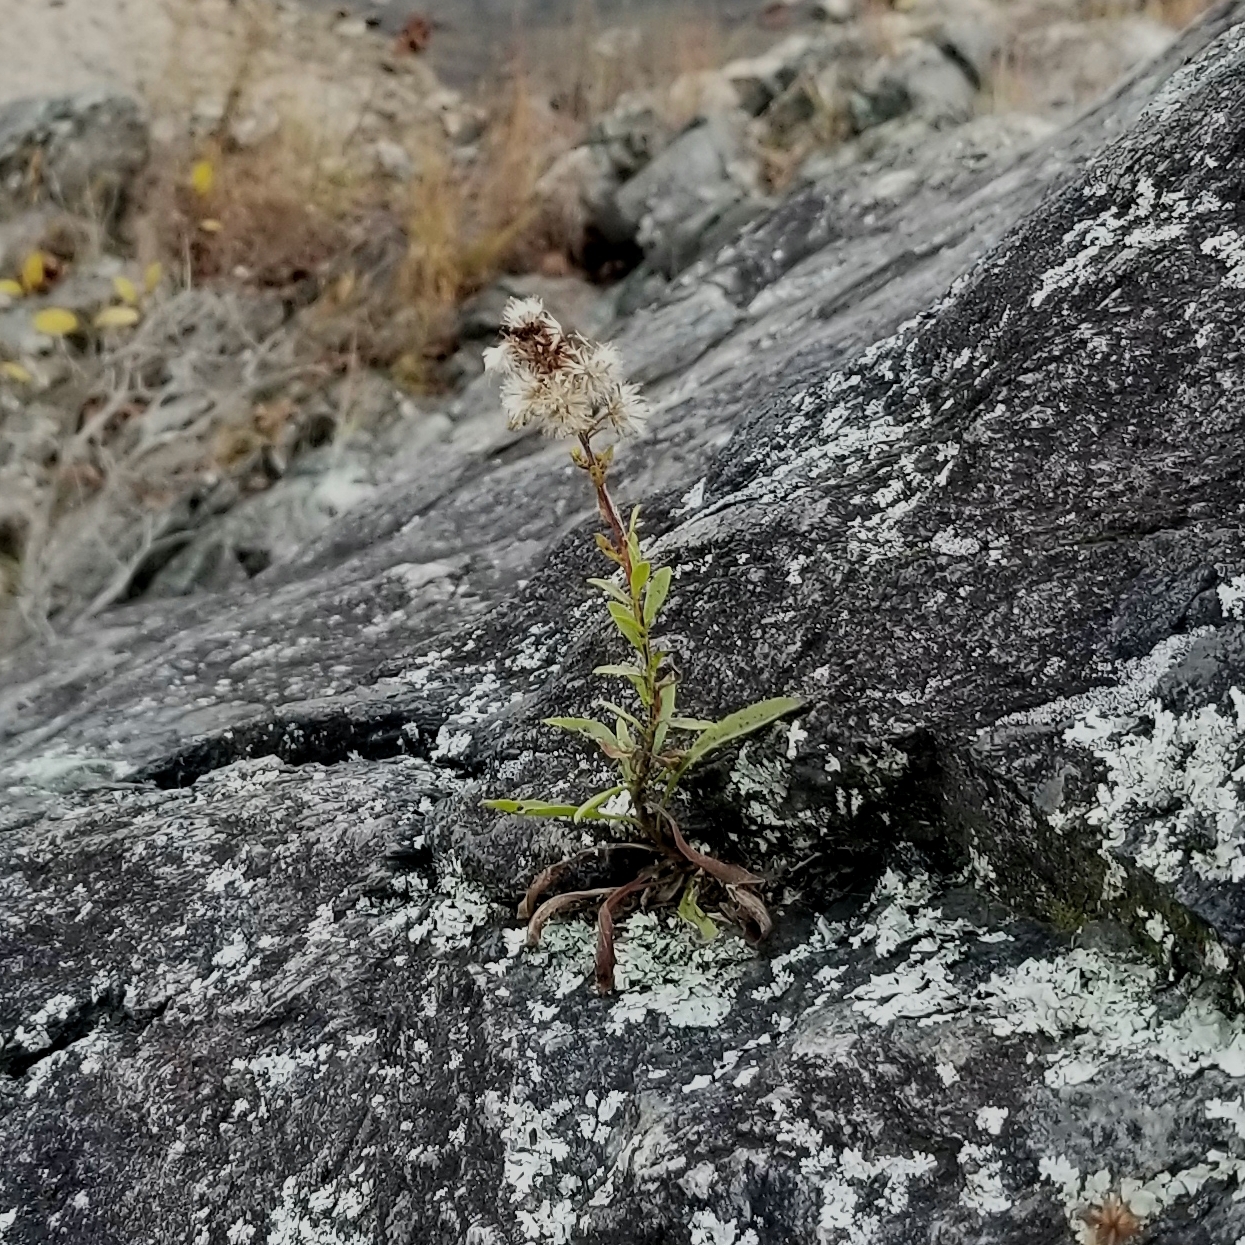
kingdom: Plantae
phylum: Tracheophyta
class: Magnoliopsida
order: Asterales
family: Asteraceae
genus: Solidago
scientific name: Solidago racemosa
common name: Lake ontario goldenrod
